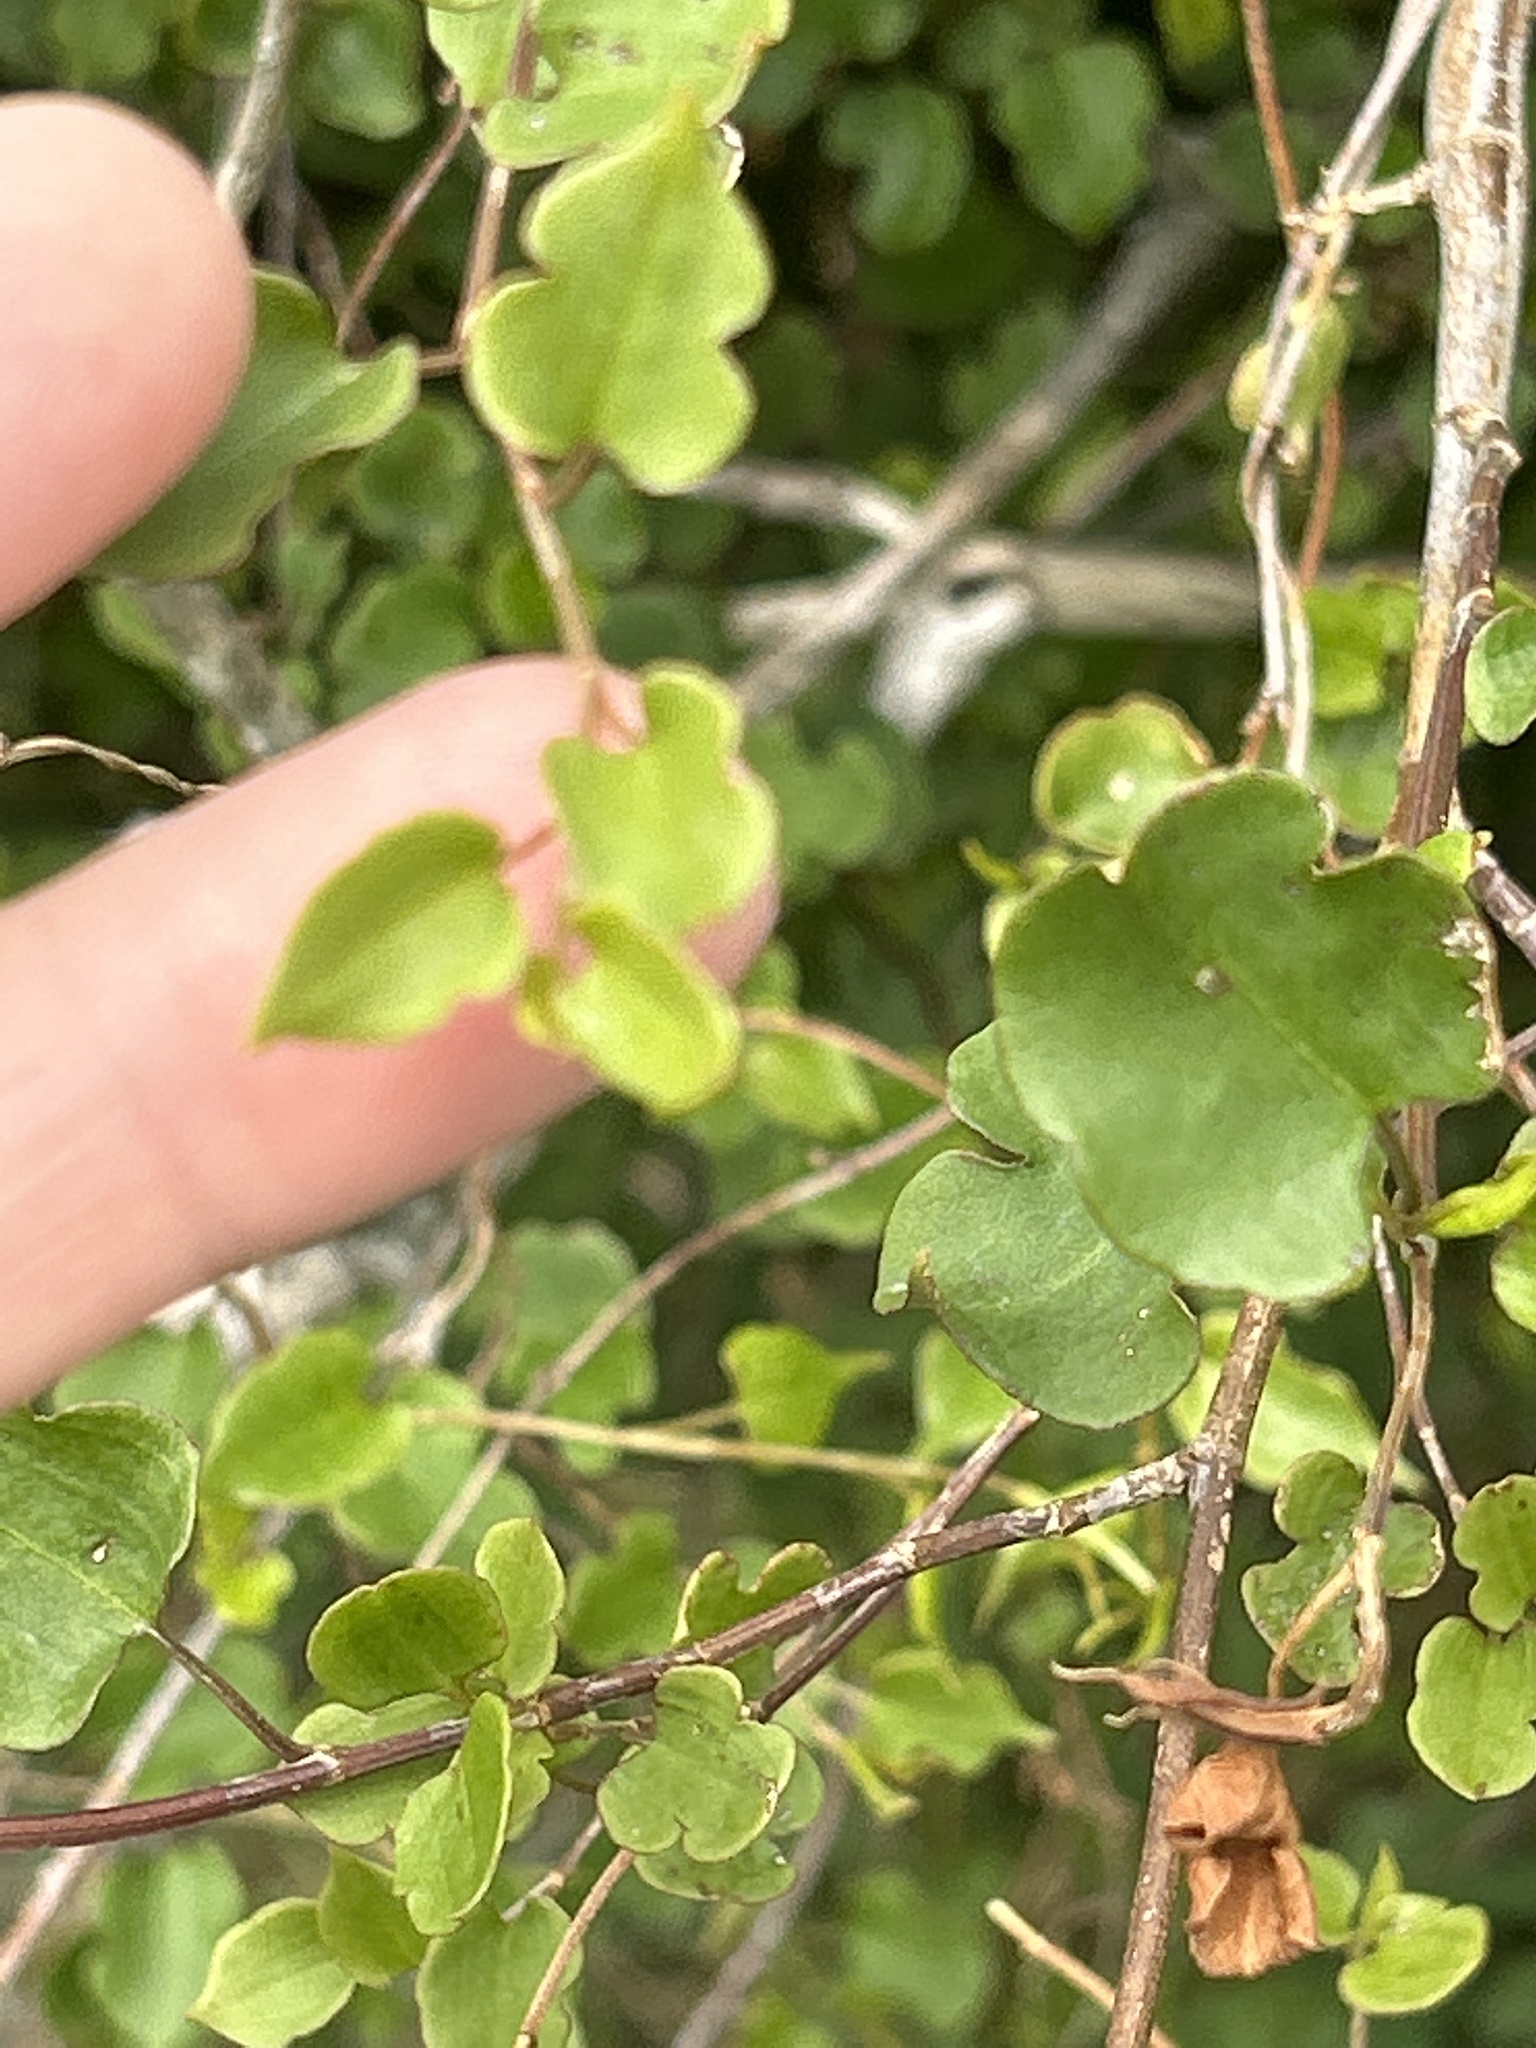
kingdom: Plantae
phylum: Tracheophyta
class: Magnoliopsida
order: Caryophyllales
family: Polygonaceae
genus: Muehlenbeckia
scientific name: Muehlenbeckia australis
